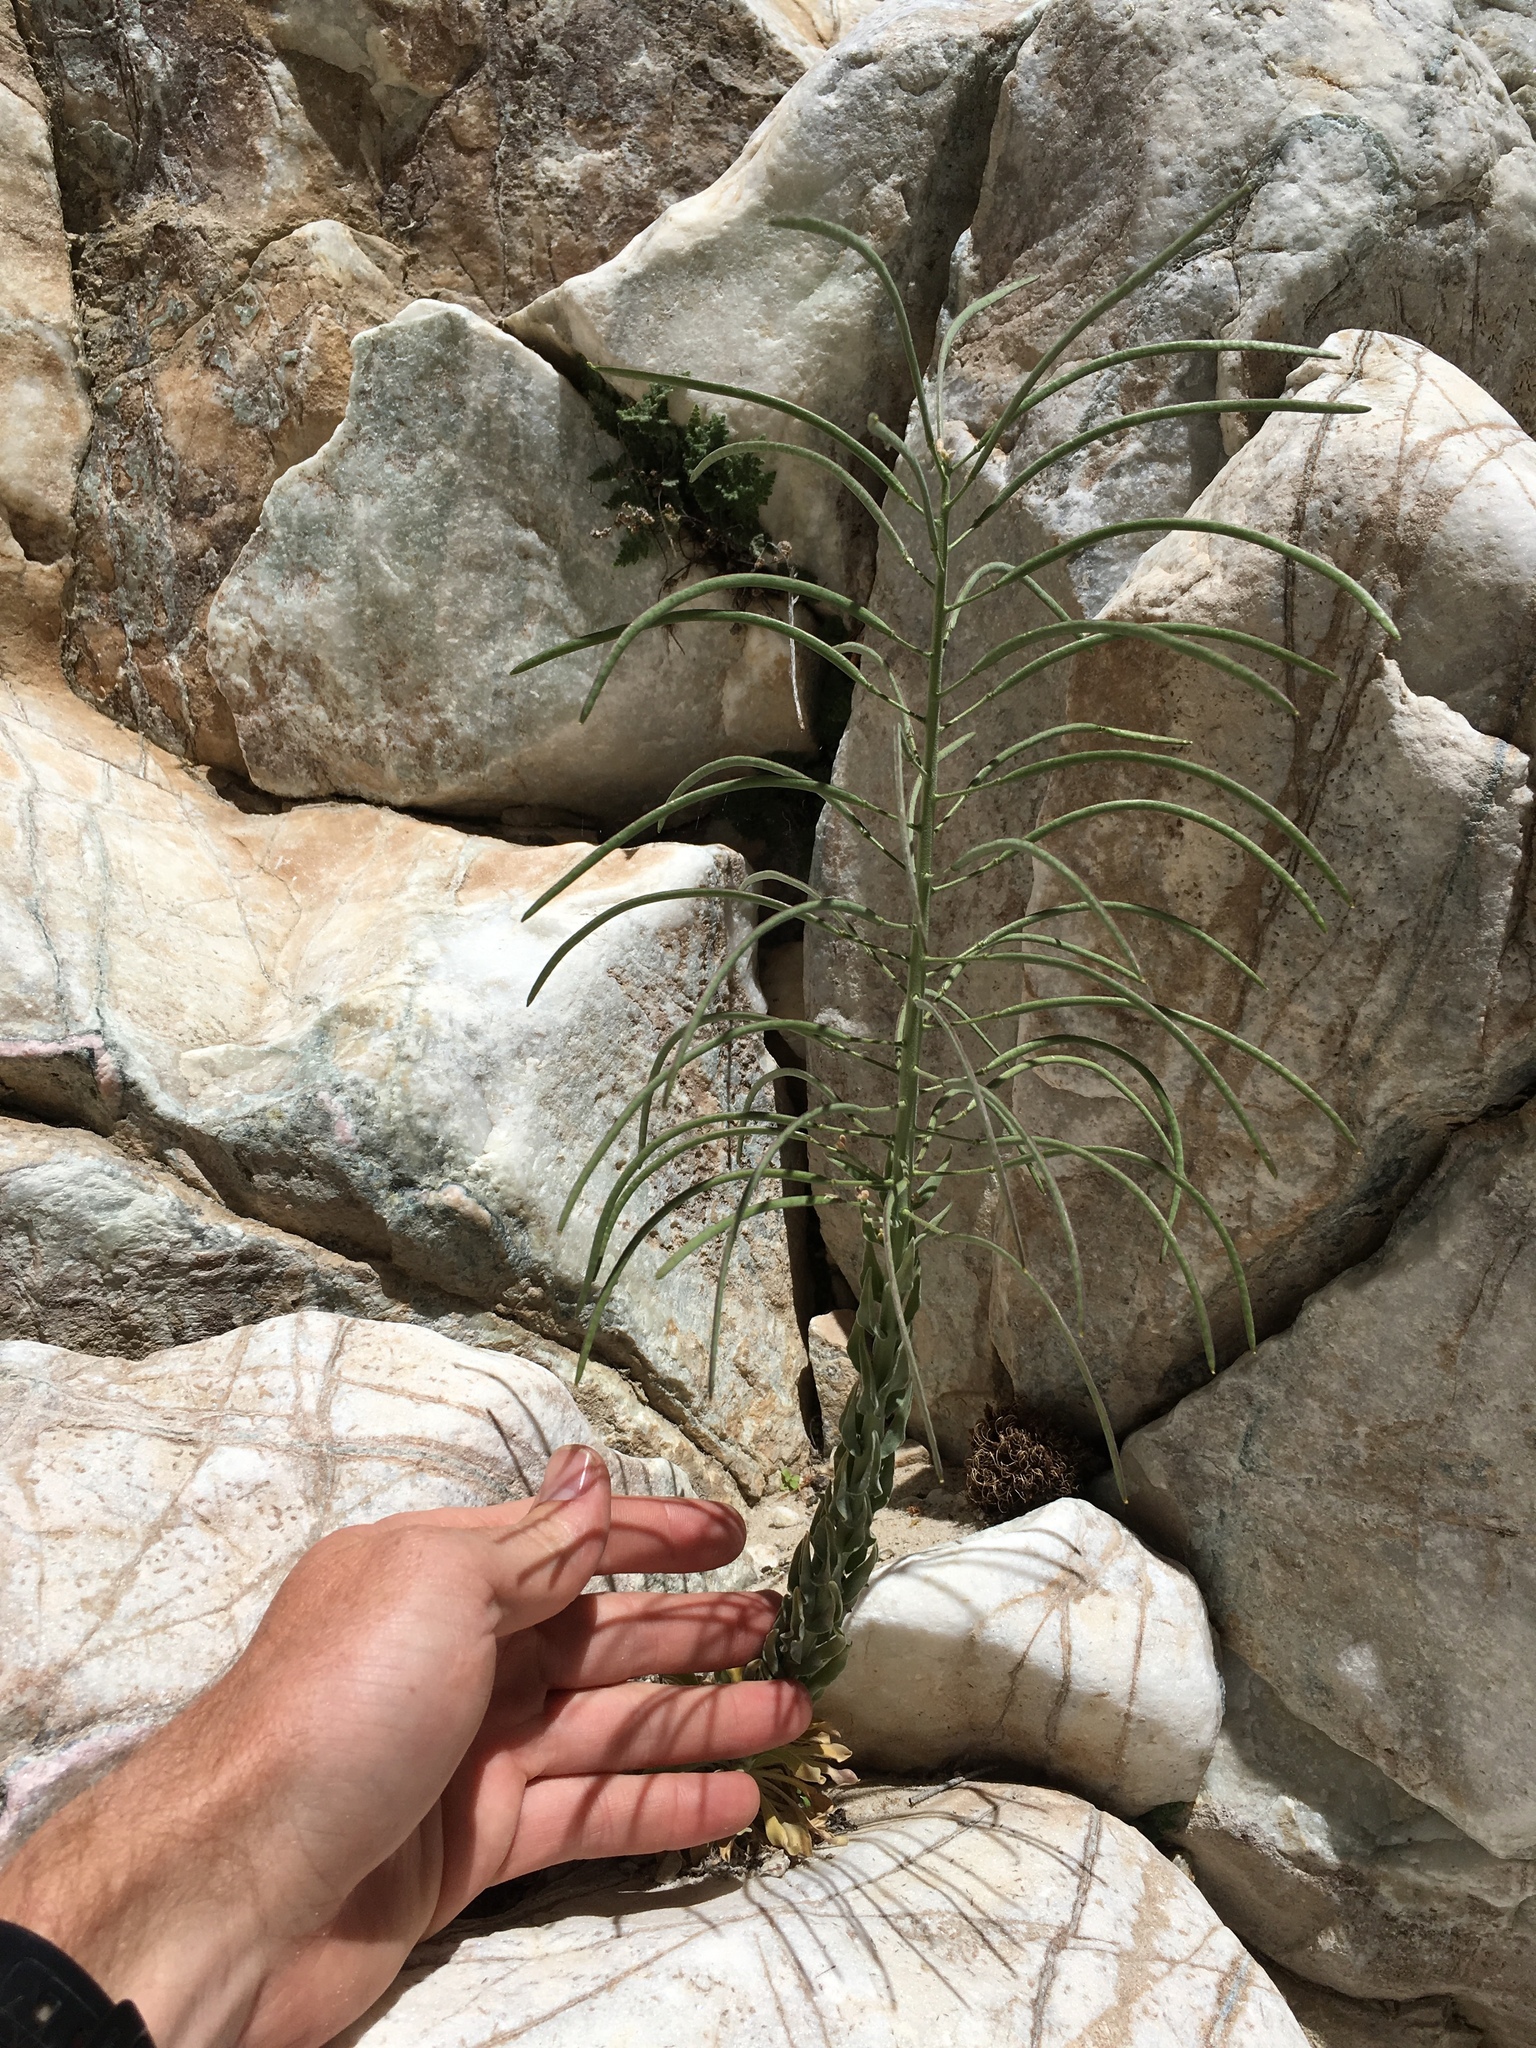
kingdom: Plantae
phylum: Tracheophyta
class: Magnoliopsida
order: Brassicales
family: Brassicaceae
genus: Boechera
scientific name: Boechera shockleyi
